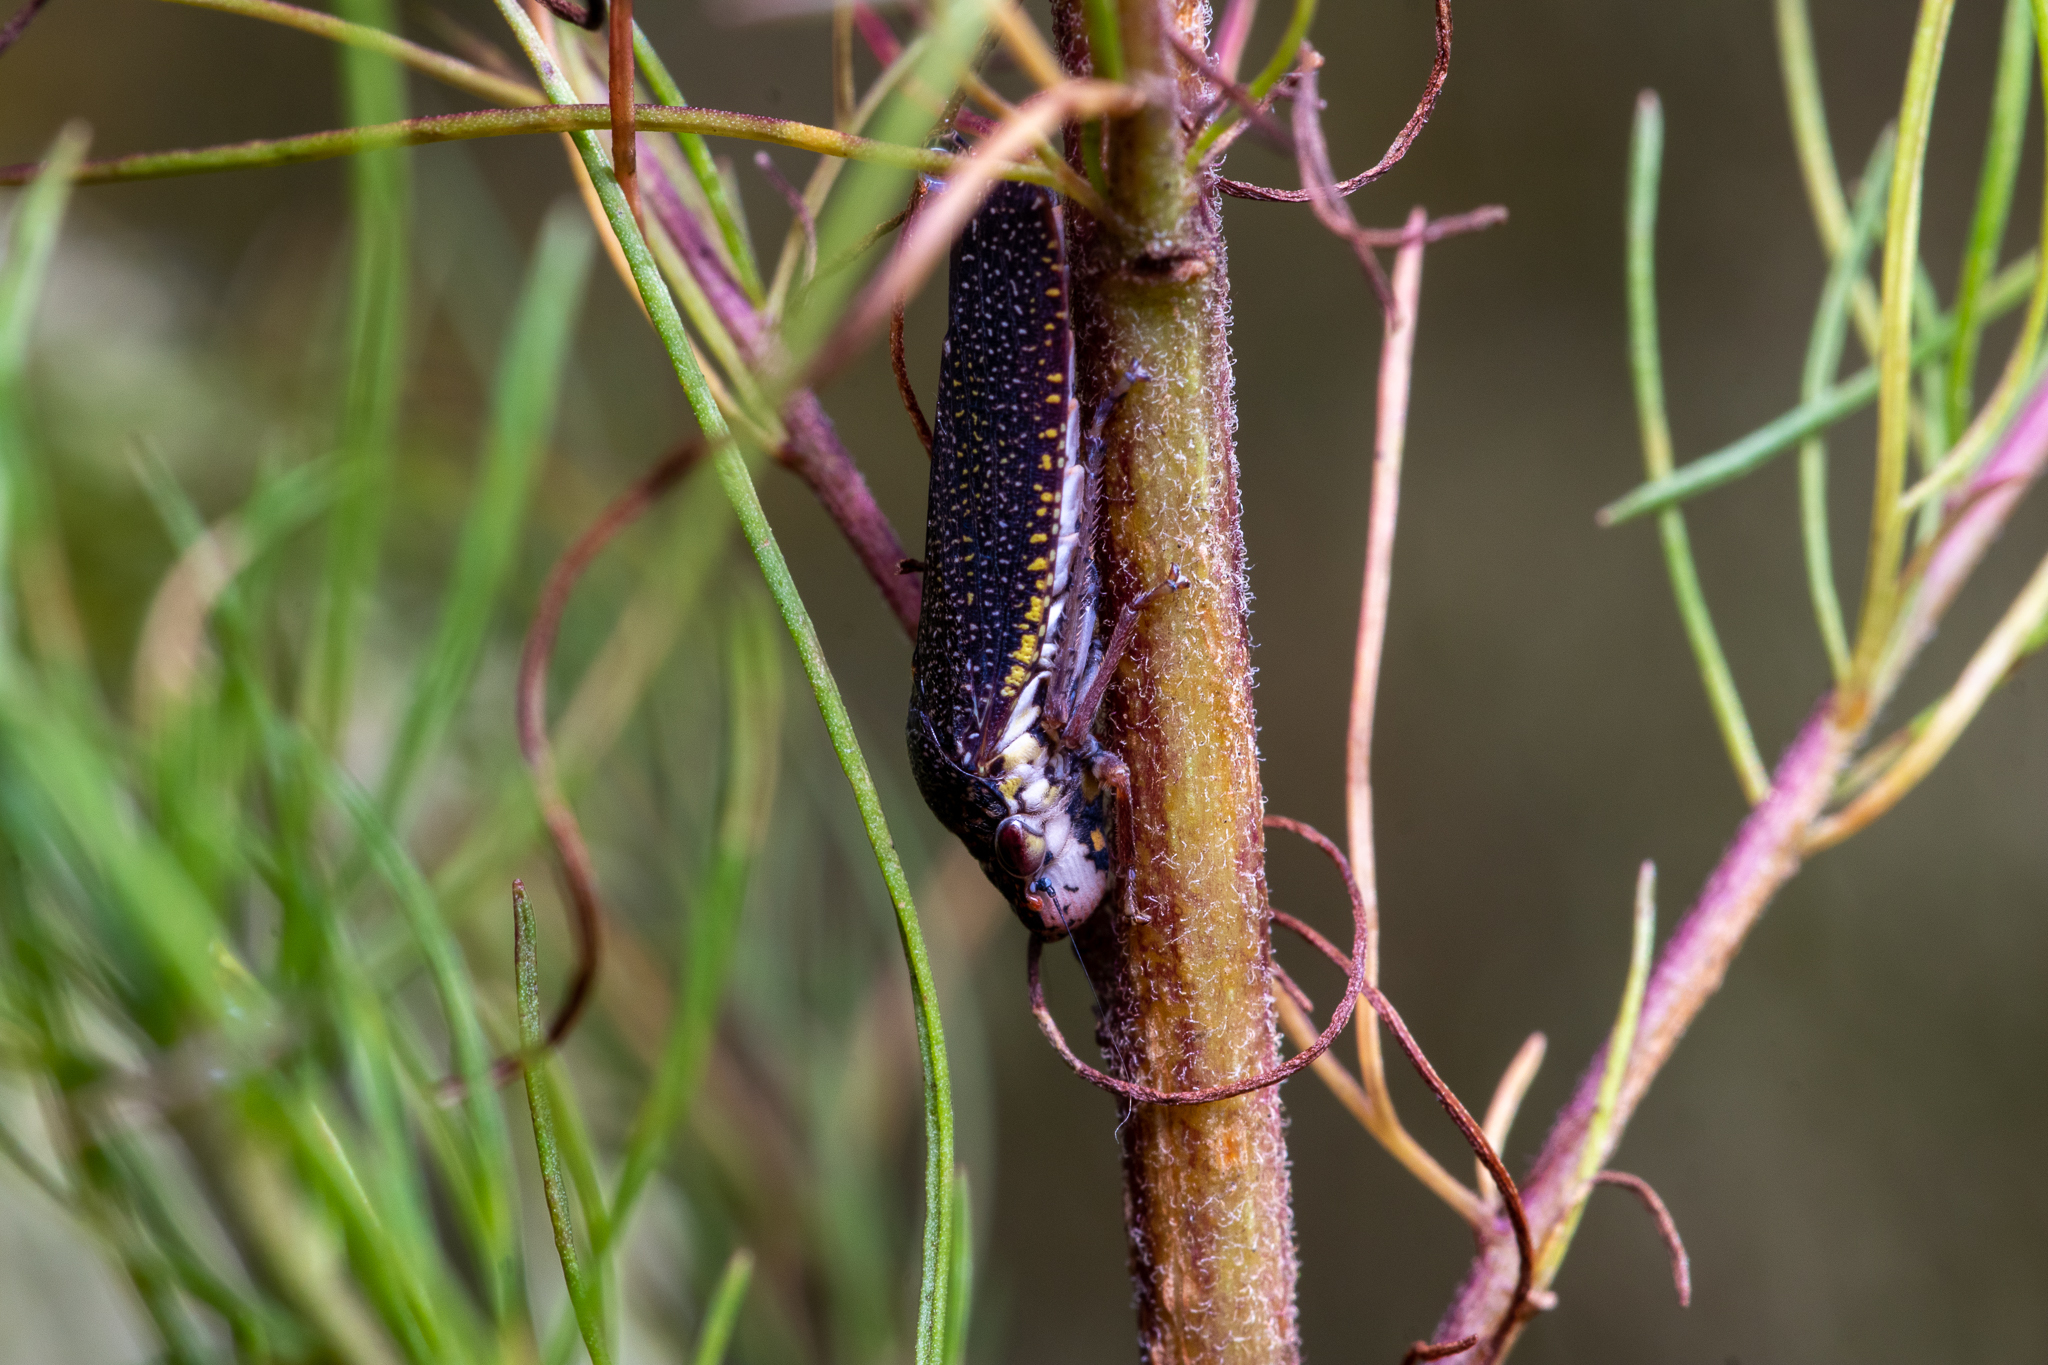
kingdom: Animalia
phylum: Arthropoda
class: Insecta
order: Hemiptera
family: Cicadellidae
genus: Paraulacizes
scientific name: Paraulacizes irrorata
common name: Speckled sharpshooter
